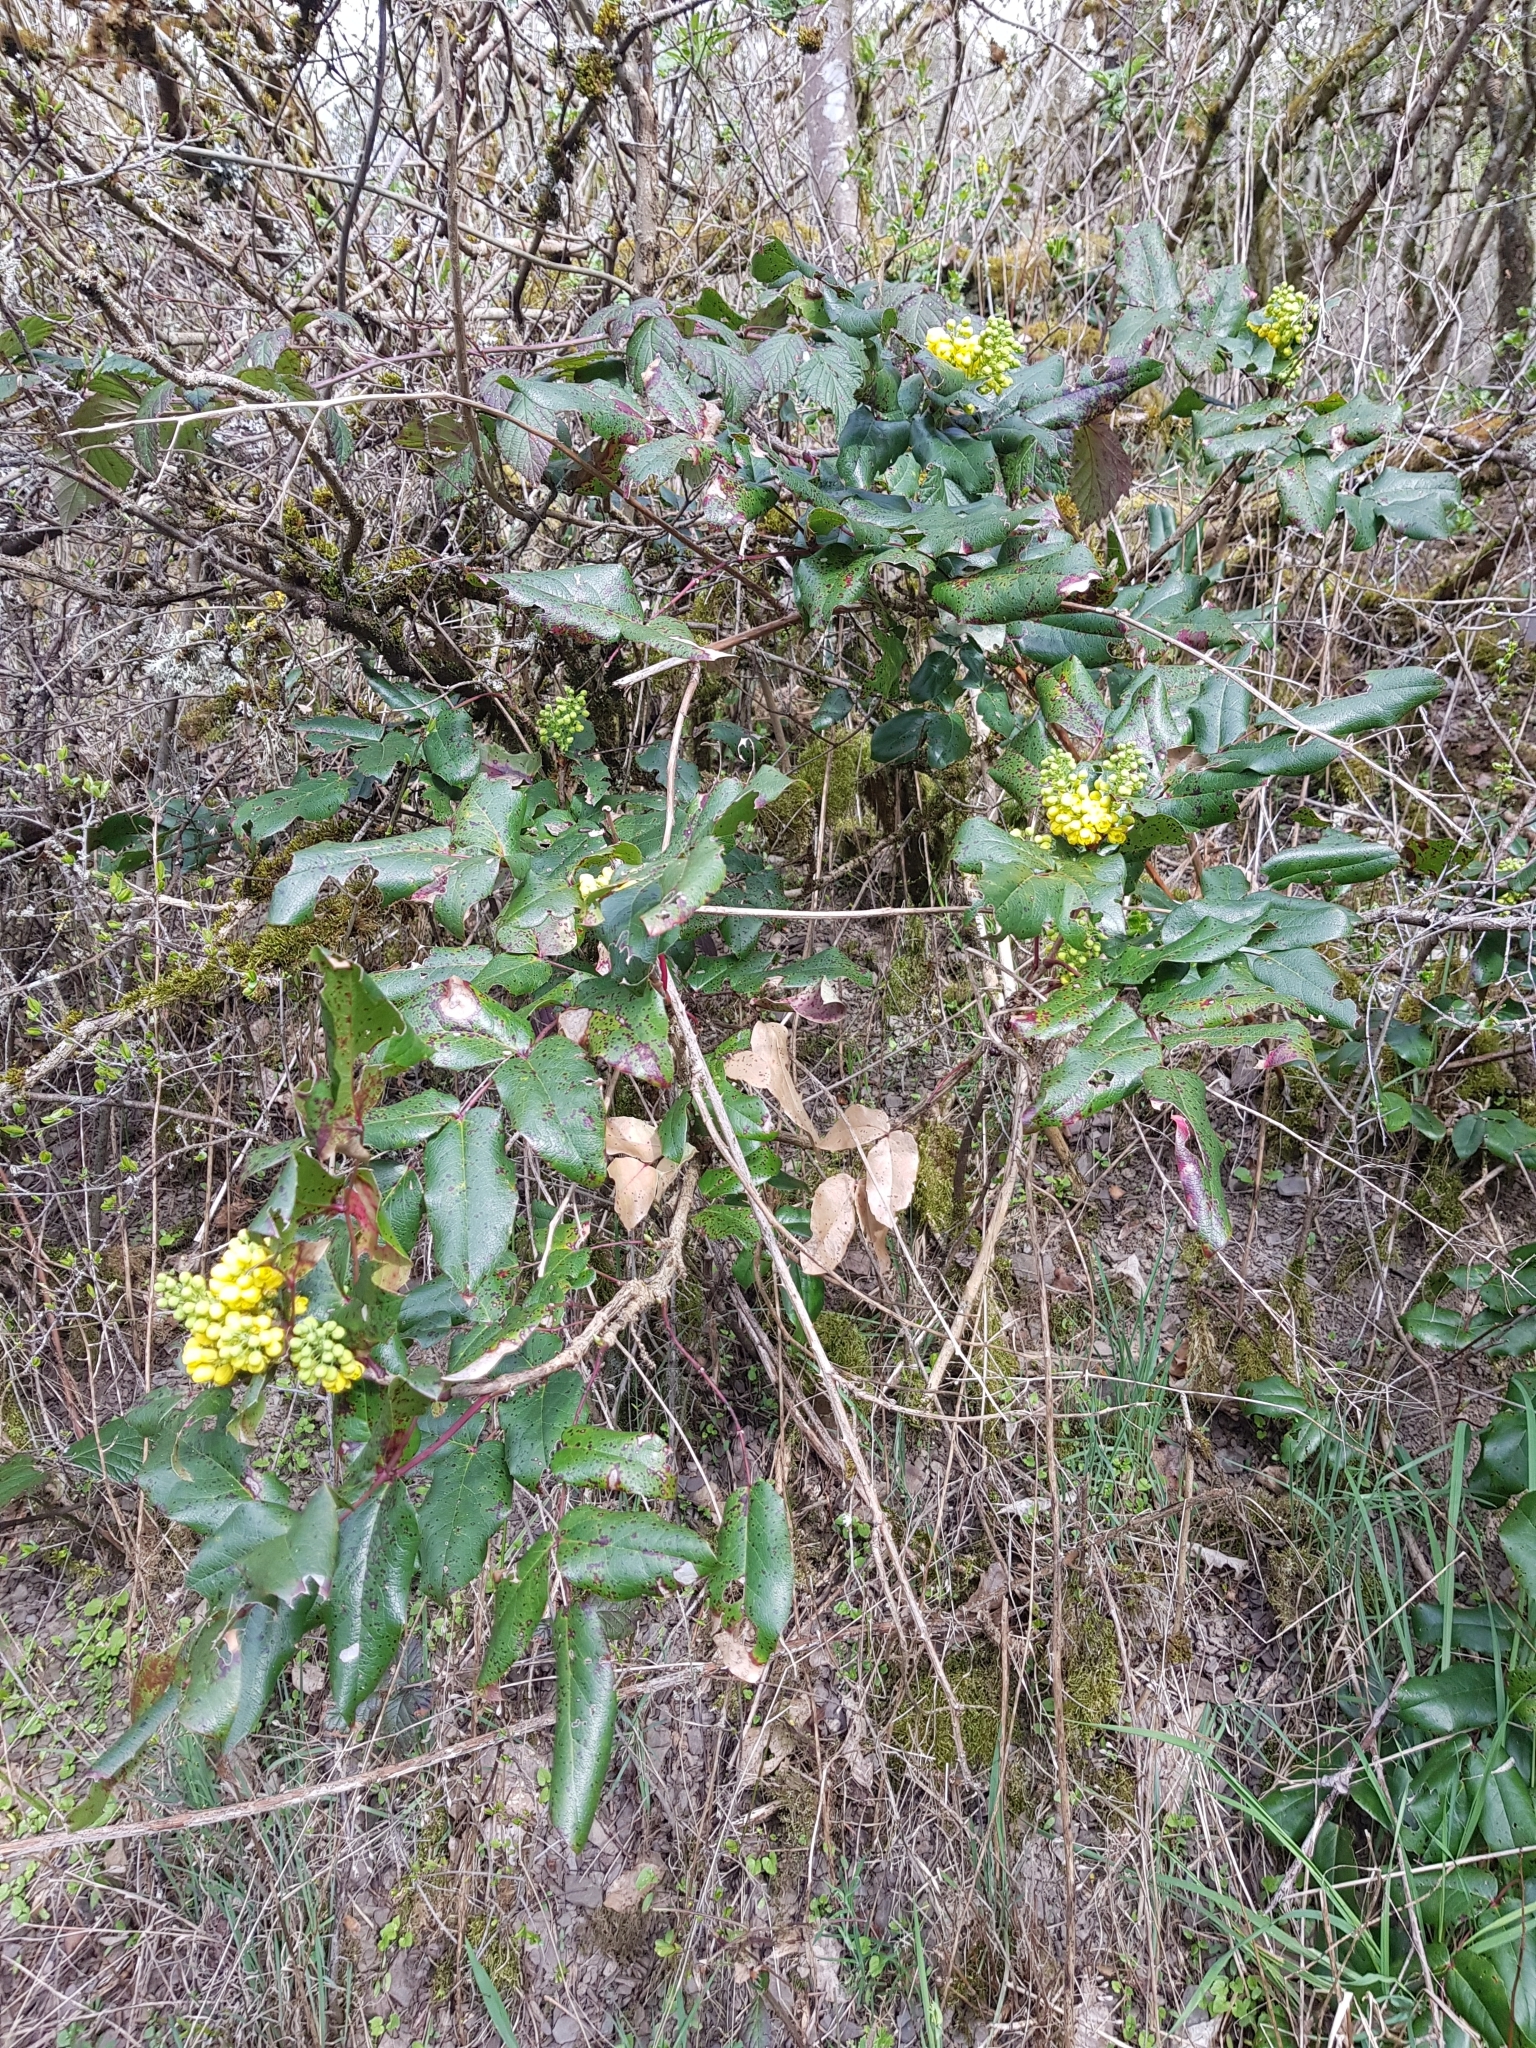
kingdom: Plantae
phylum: Tracheophyta
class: Magnoliopsida
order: Ranunculales
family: Berberidaceae
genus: Mahonia
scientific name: Mahonia aquifolium
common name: Oregon-grape
